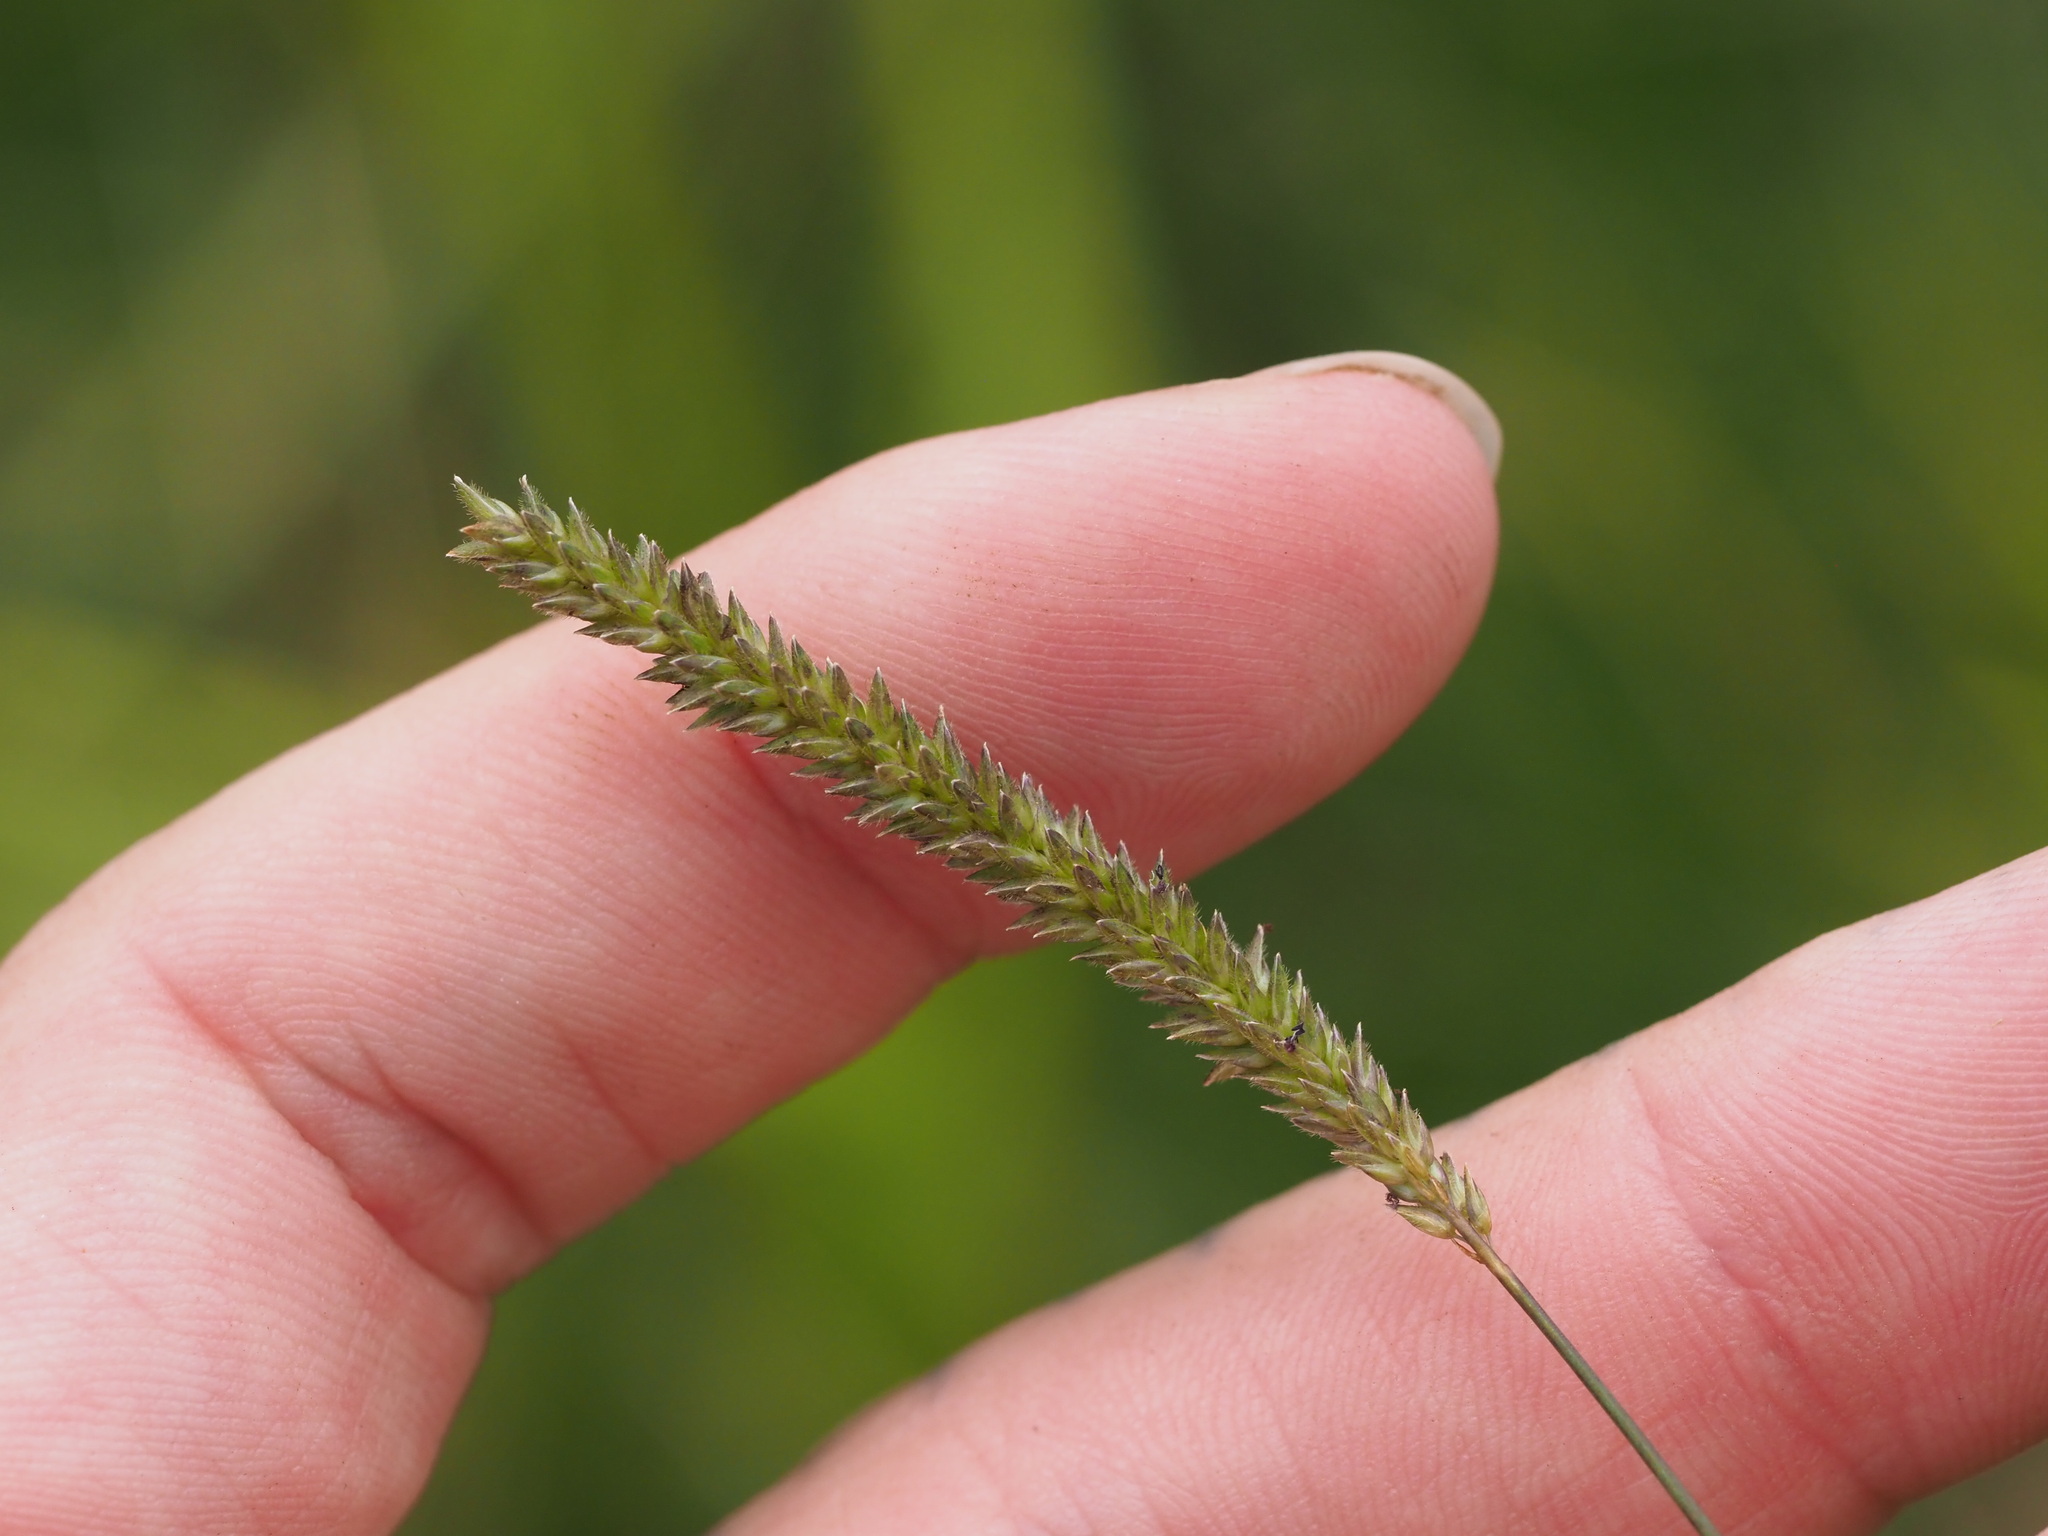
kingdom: Plantae
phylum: Tracheophyta
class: Liliopsida
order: Poales
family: Poaceae
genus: Sacciolepis
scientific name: Sacciolepis indica
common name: Glenwoodgrass
